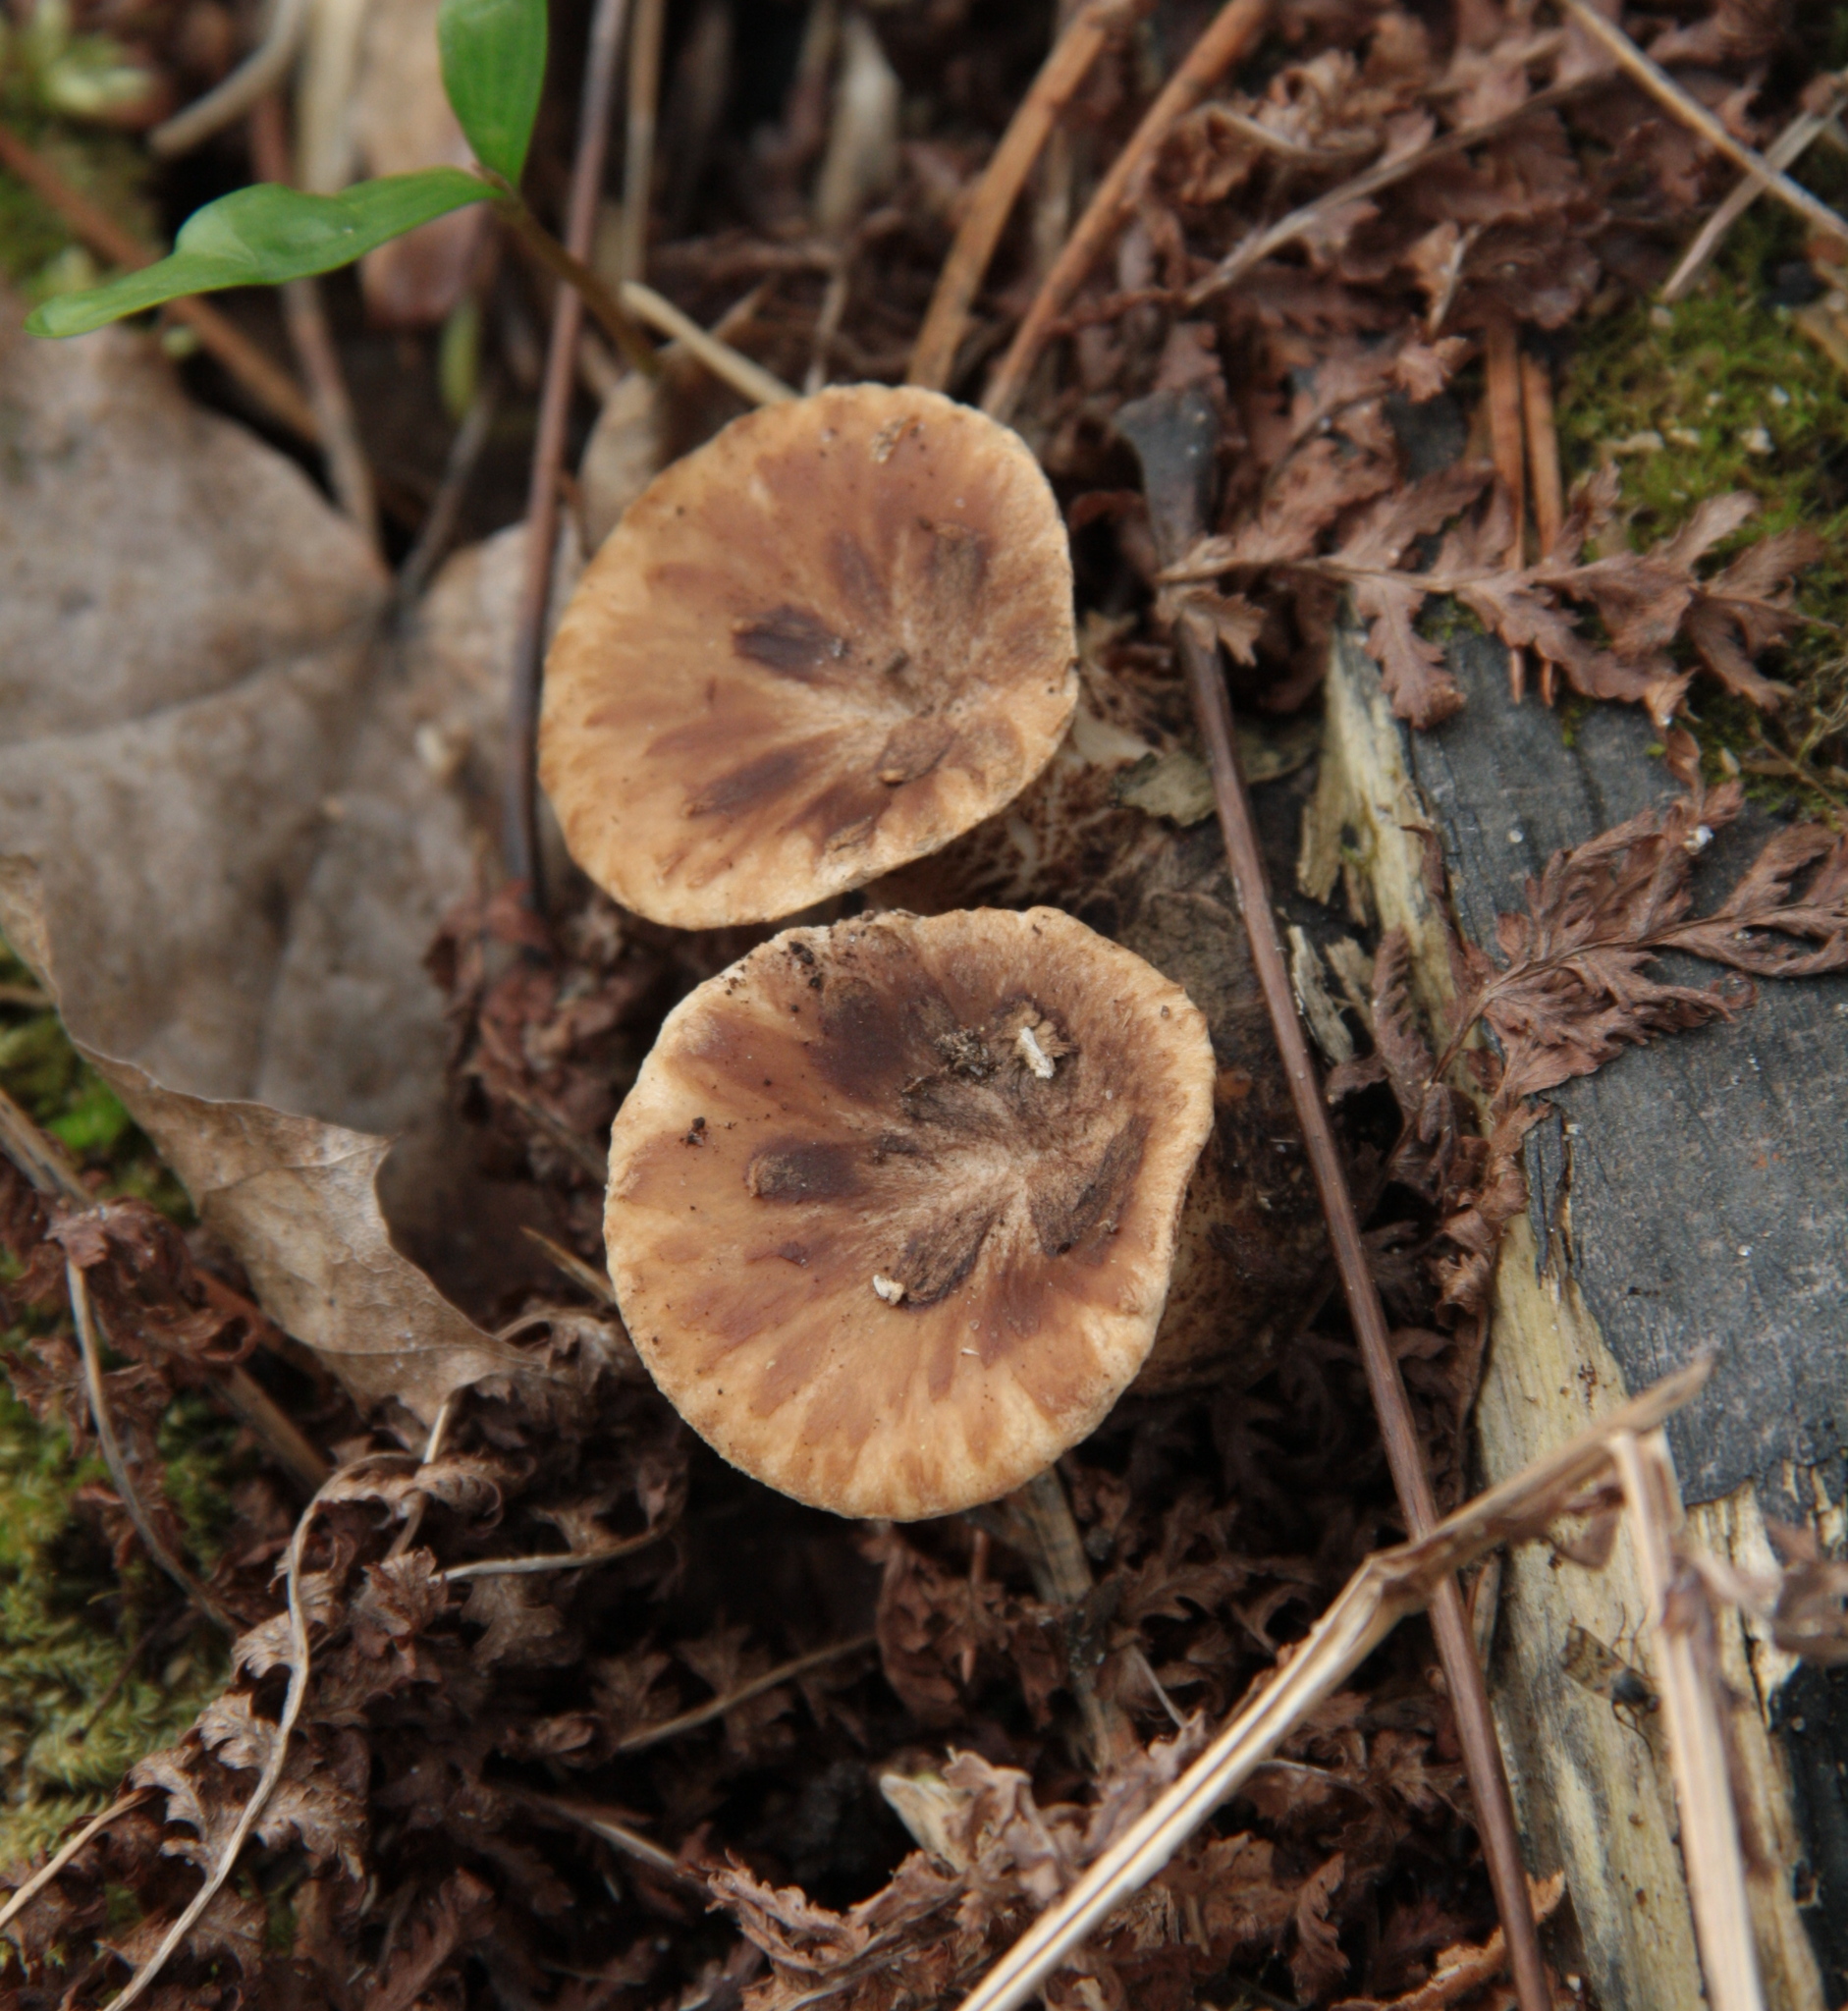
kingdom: Fungi
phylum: Basidiomycota
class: Agaricomycetes
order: Polyporales
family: Polyporaceae
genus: Cerioporus
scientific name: Cerioporus squamosus
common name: Dryad's saddle
